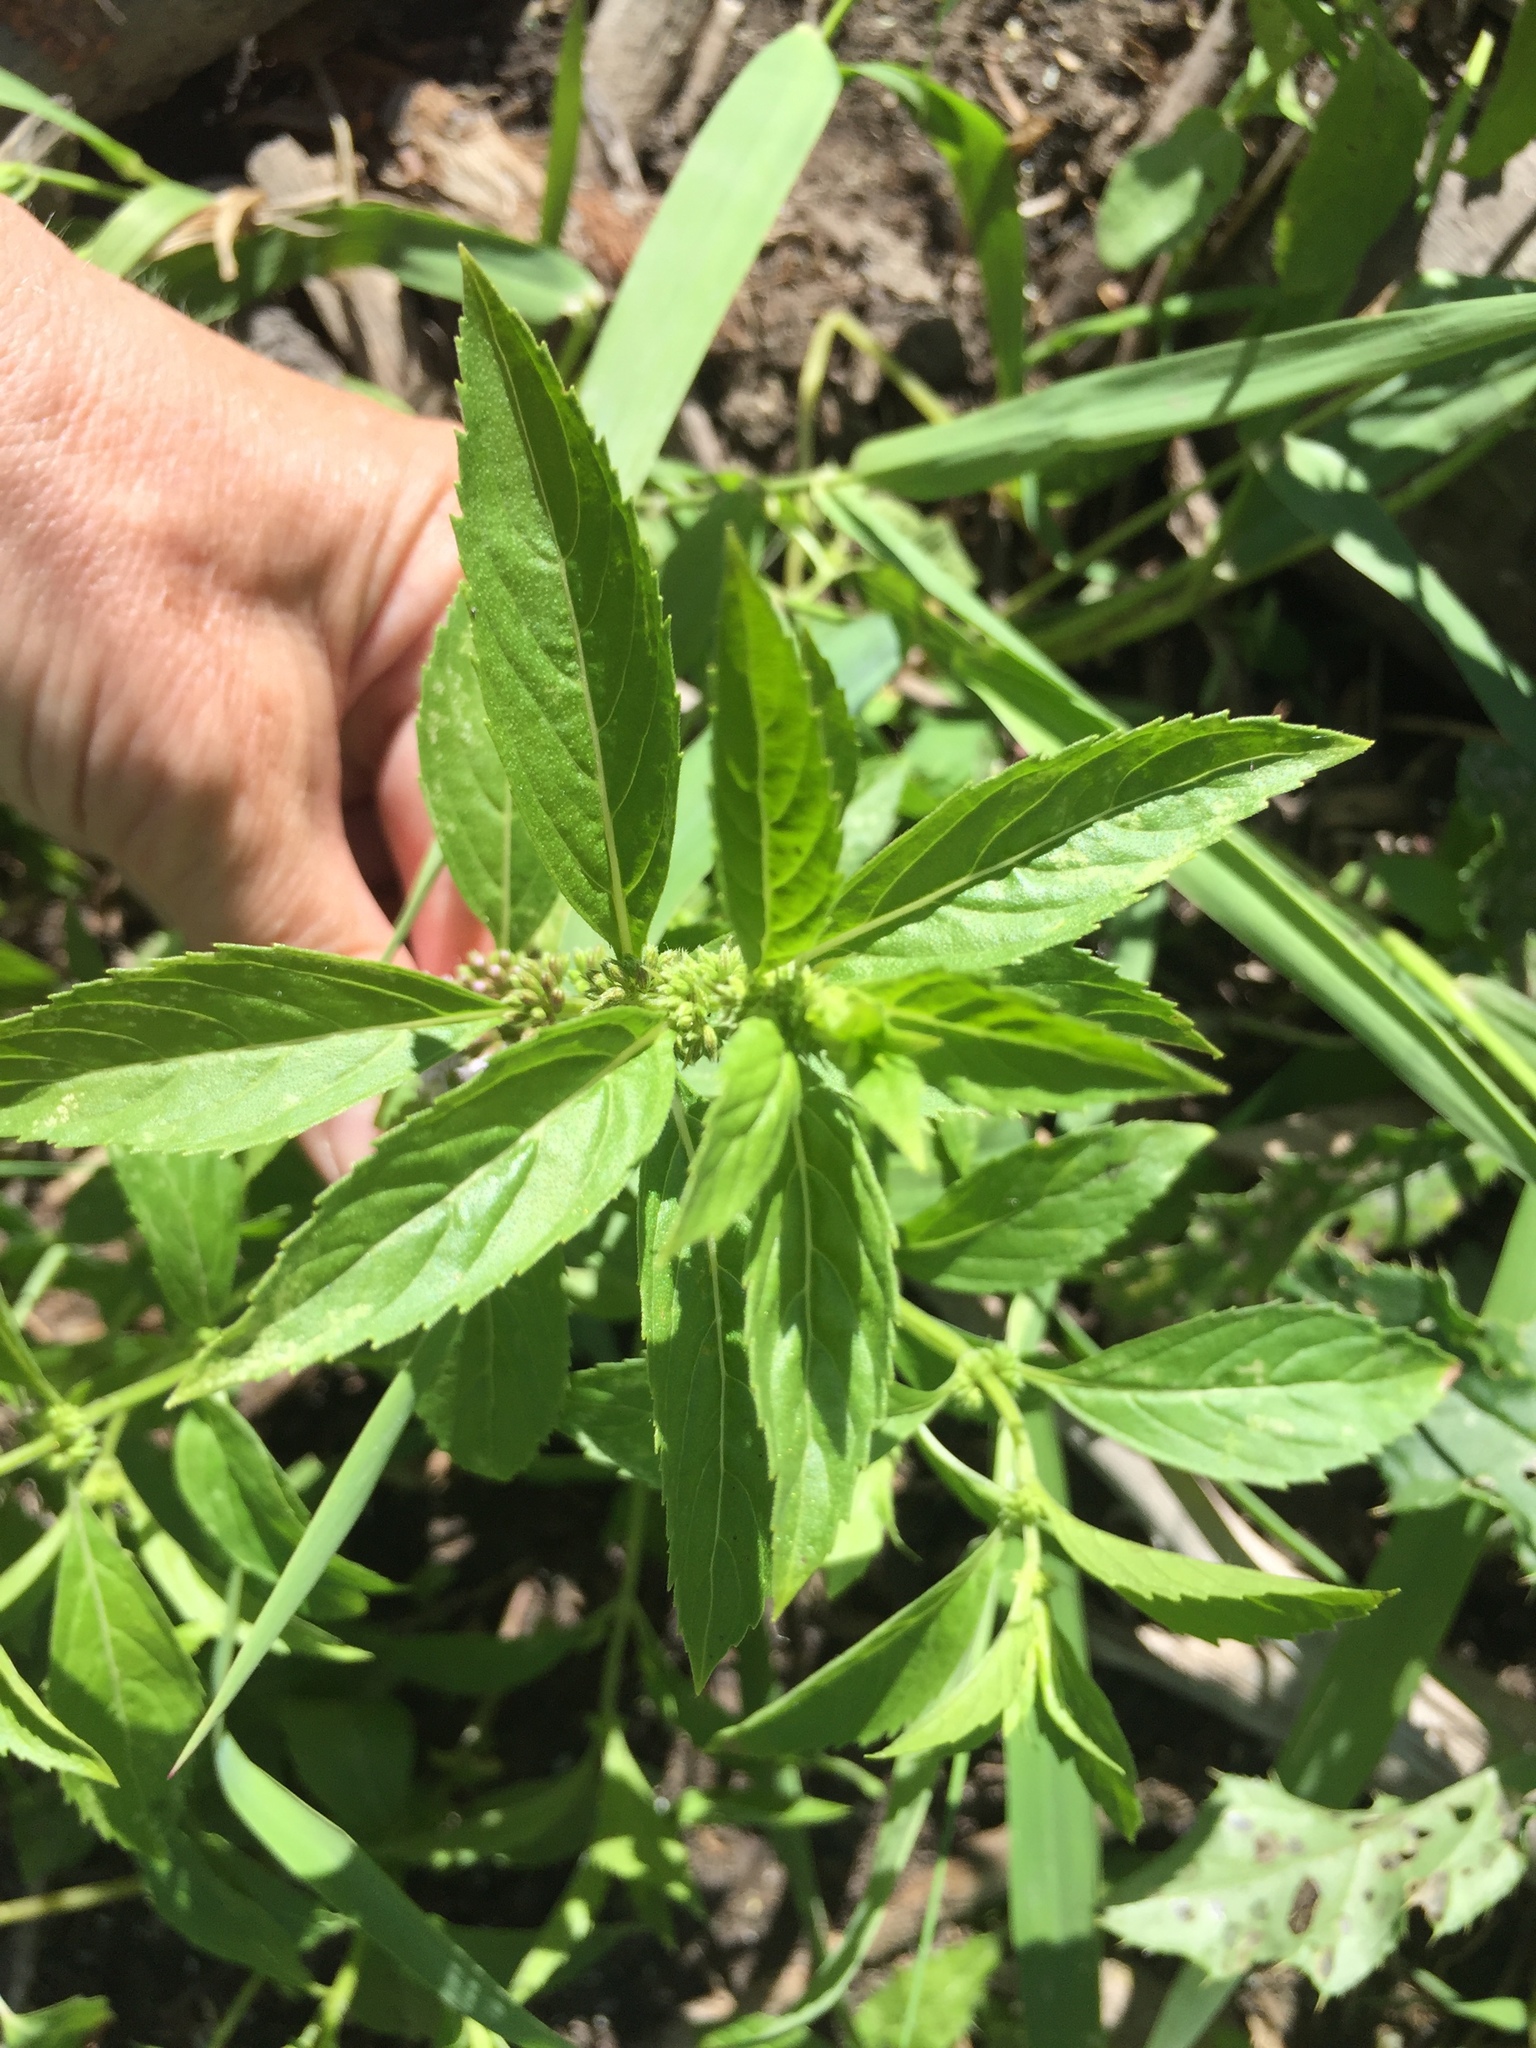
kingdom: Plantae
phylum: Tracheophyta
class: Magnoliopsida
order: Lamiales
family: Lamiaceae
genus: Mentha
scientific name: Mentha canadensis
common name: American corn mint
